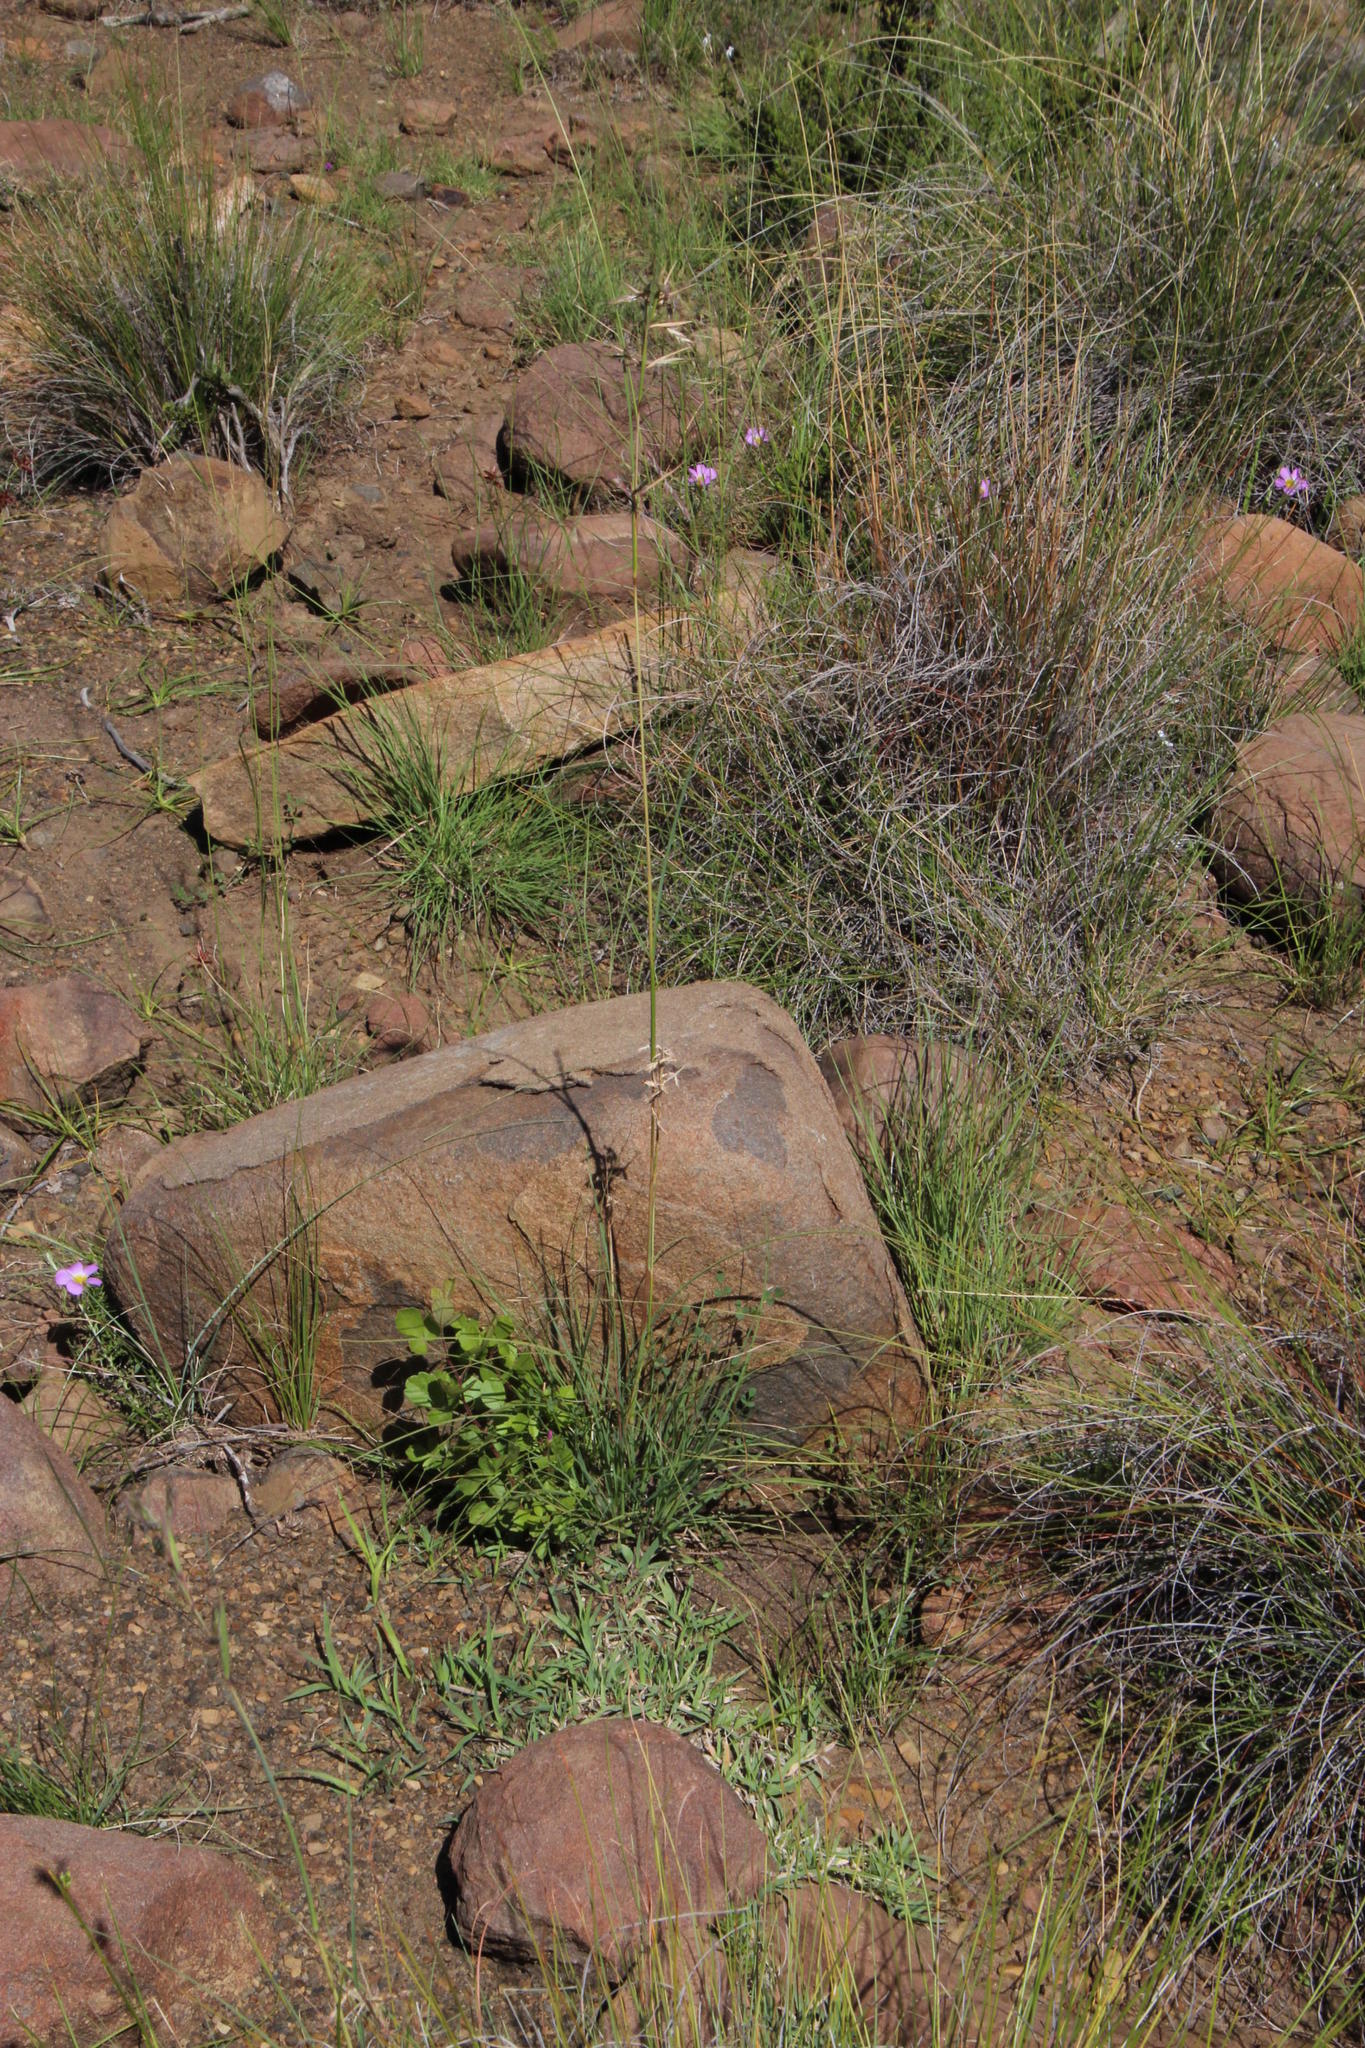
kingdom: Plantae
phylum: Tracheophyta
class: Liliopsida
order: Poales
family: Poaceae
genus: Cymbopogon
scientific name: Cymbopogon pospischilii
